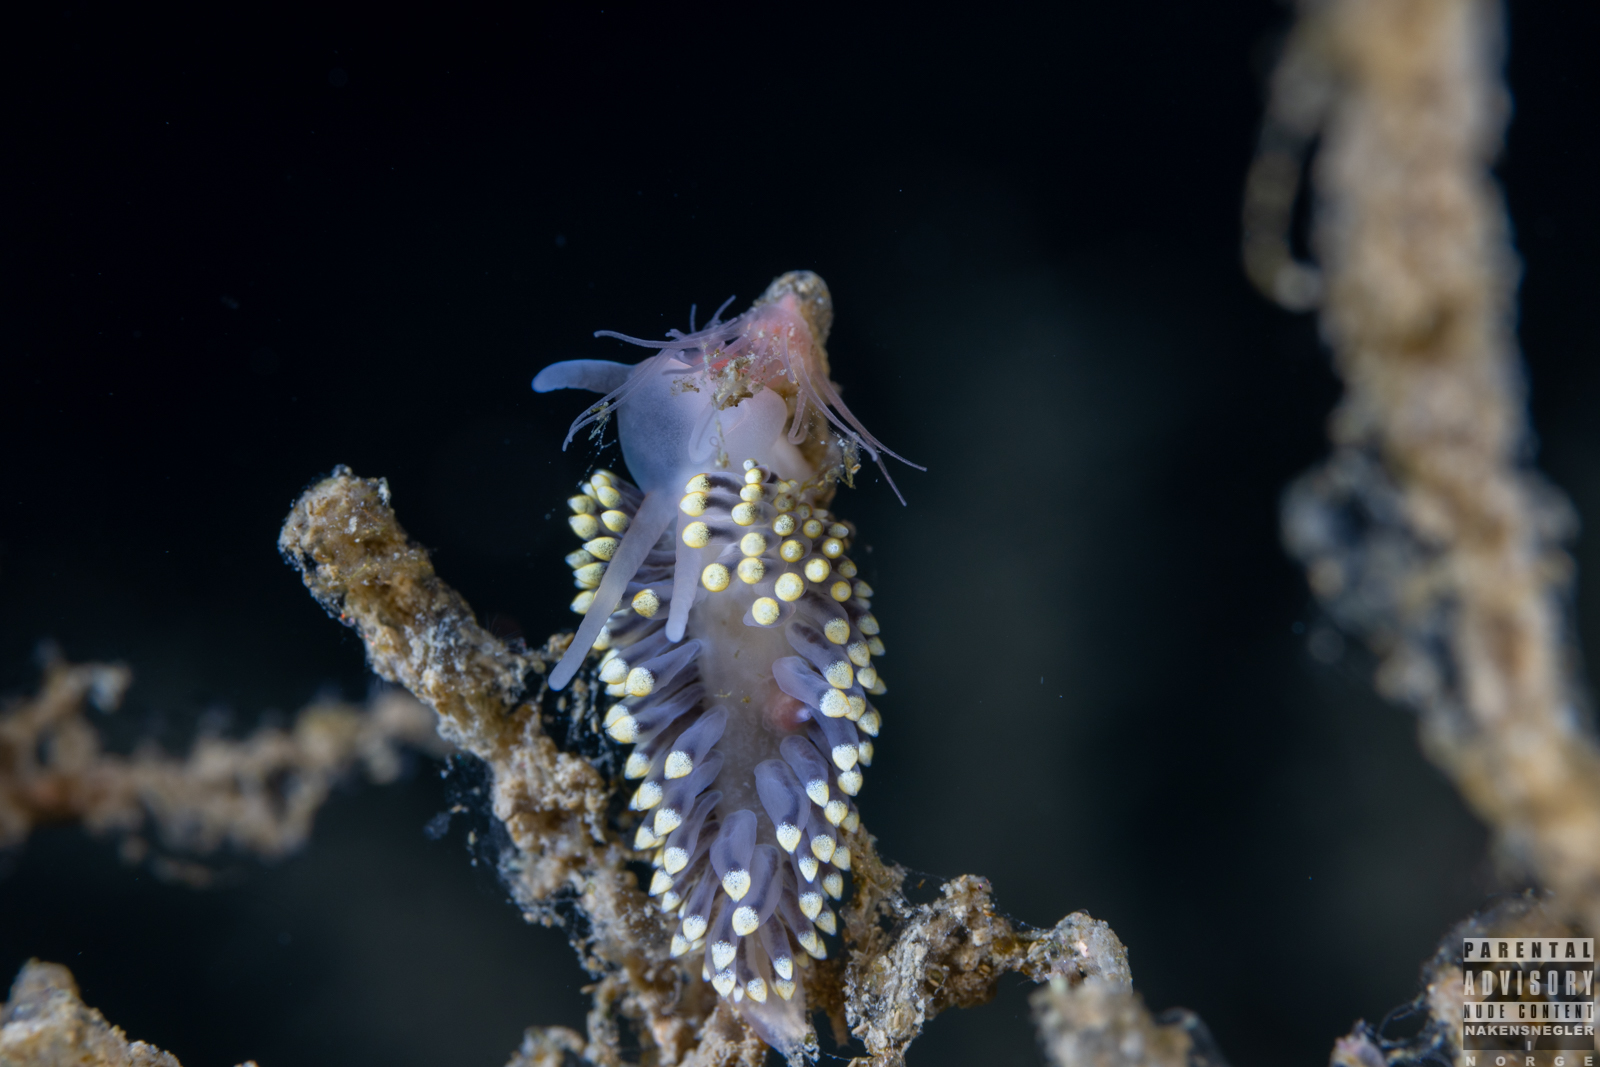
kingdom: Animalia
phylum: Mollusca
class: Gastropoda
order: Nudibranchia
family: Eubranchidae
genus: Eubranchus
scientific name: Eubranchus tricolor
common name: Painted balloon aeolis
